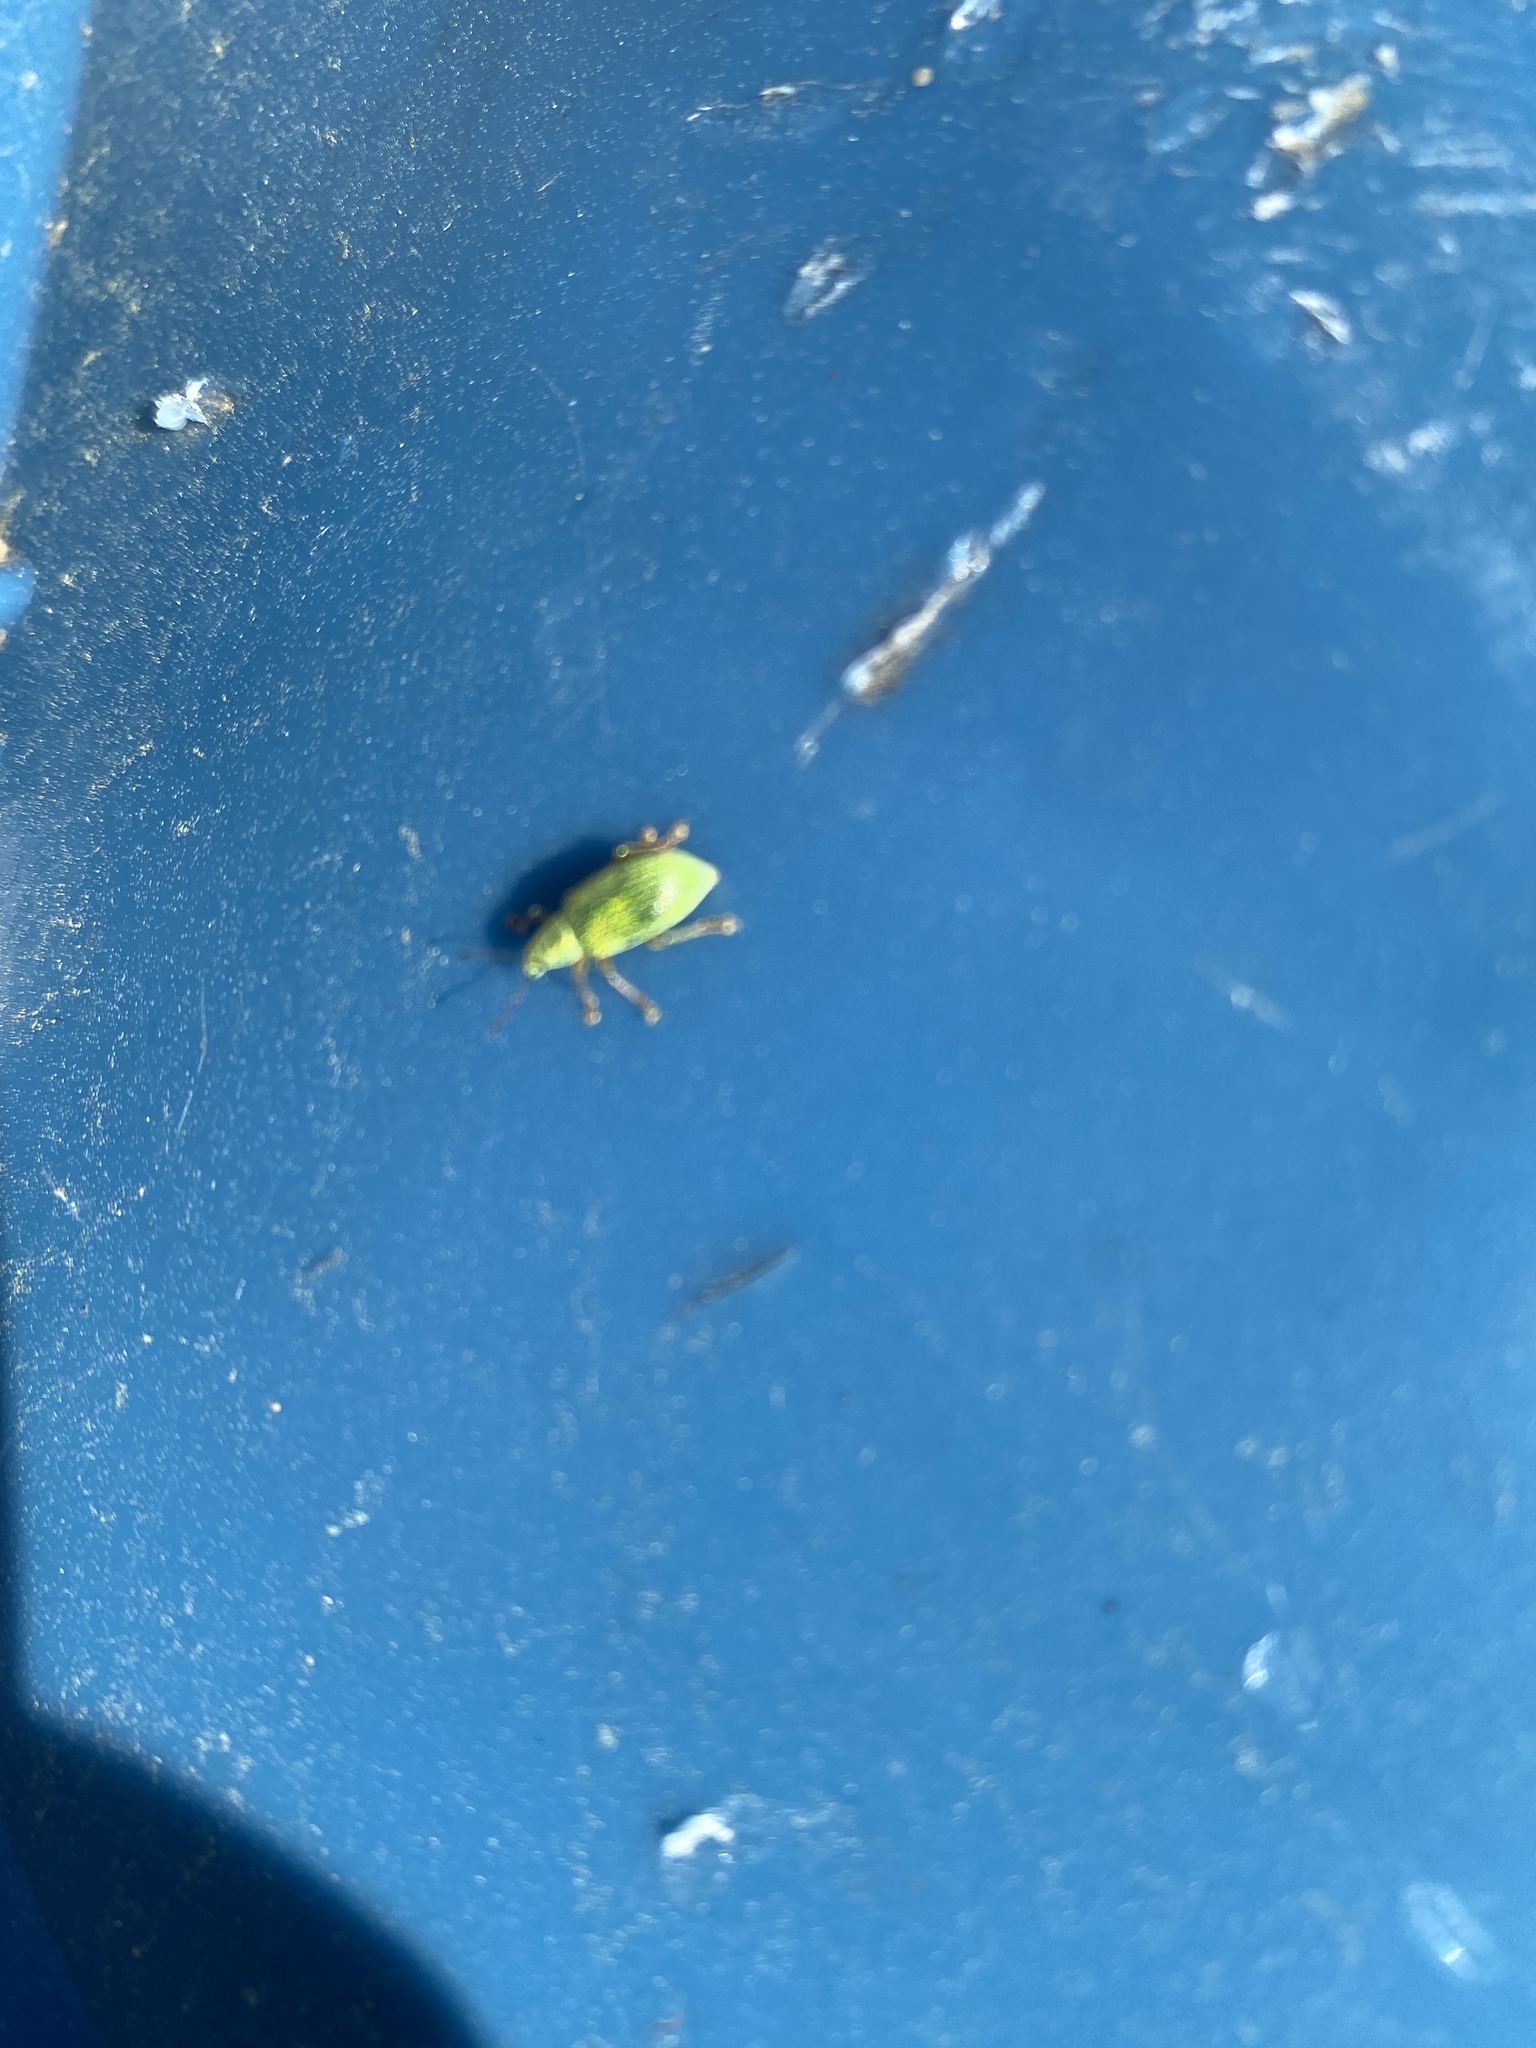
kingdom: Animalia
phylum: Arthropoda
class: Insecta
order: Coleoptera
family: Curculionidae
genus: Polydrusus
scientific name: Polydrusus formosus
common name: Weevil
